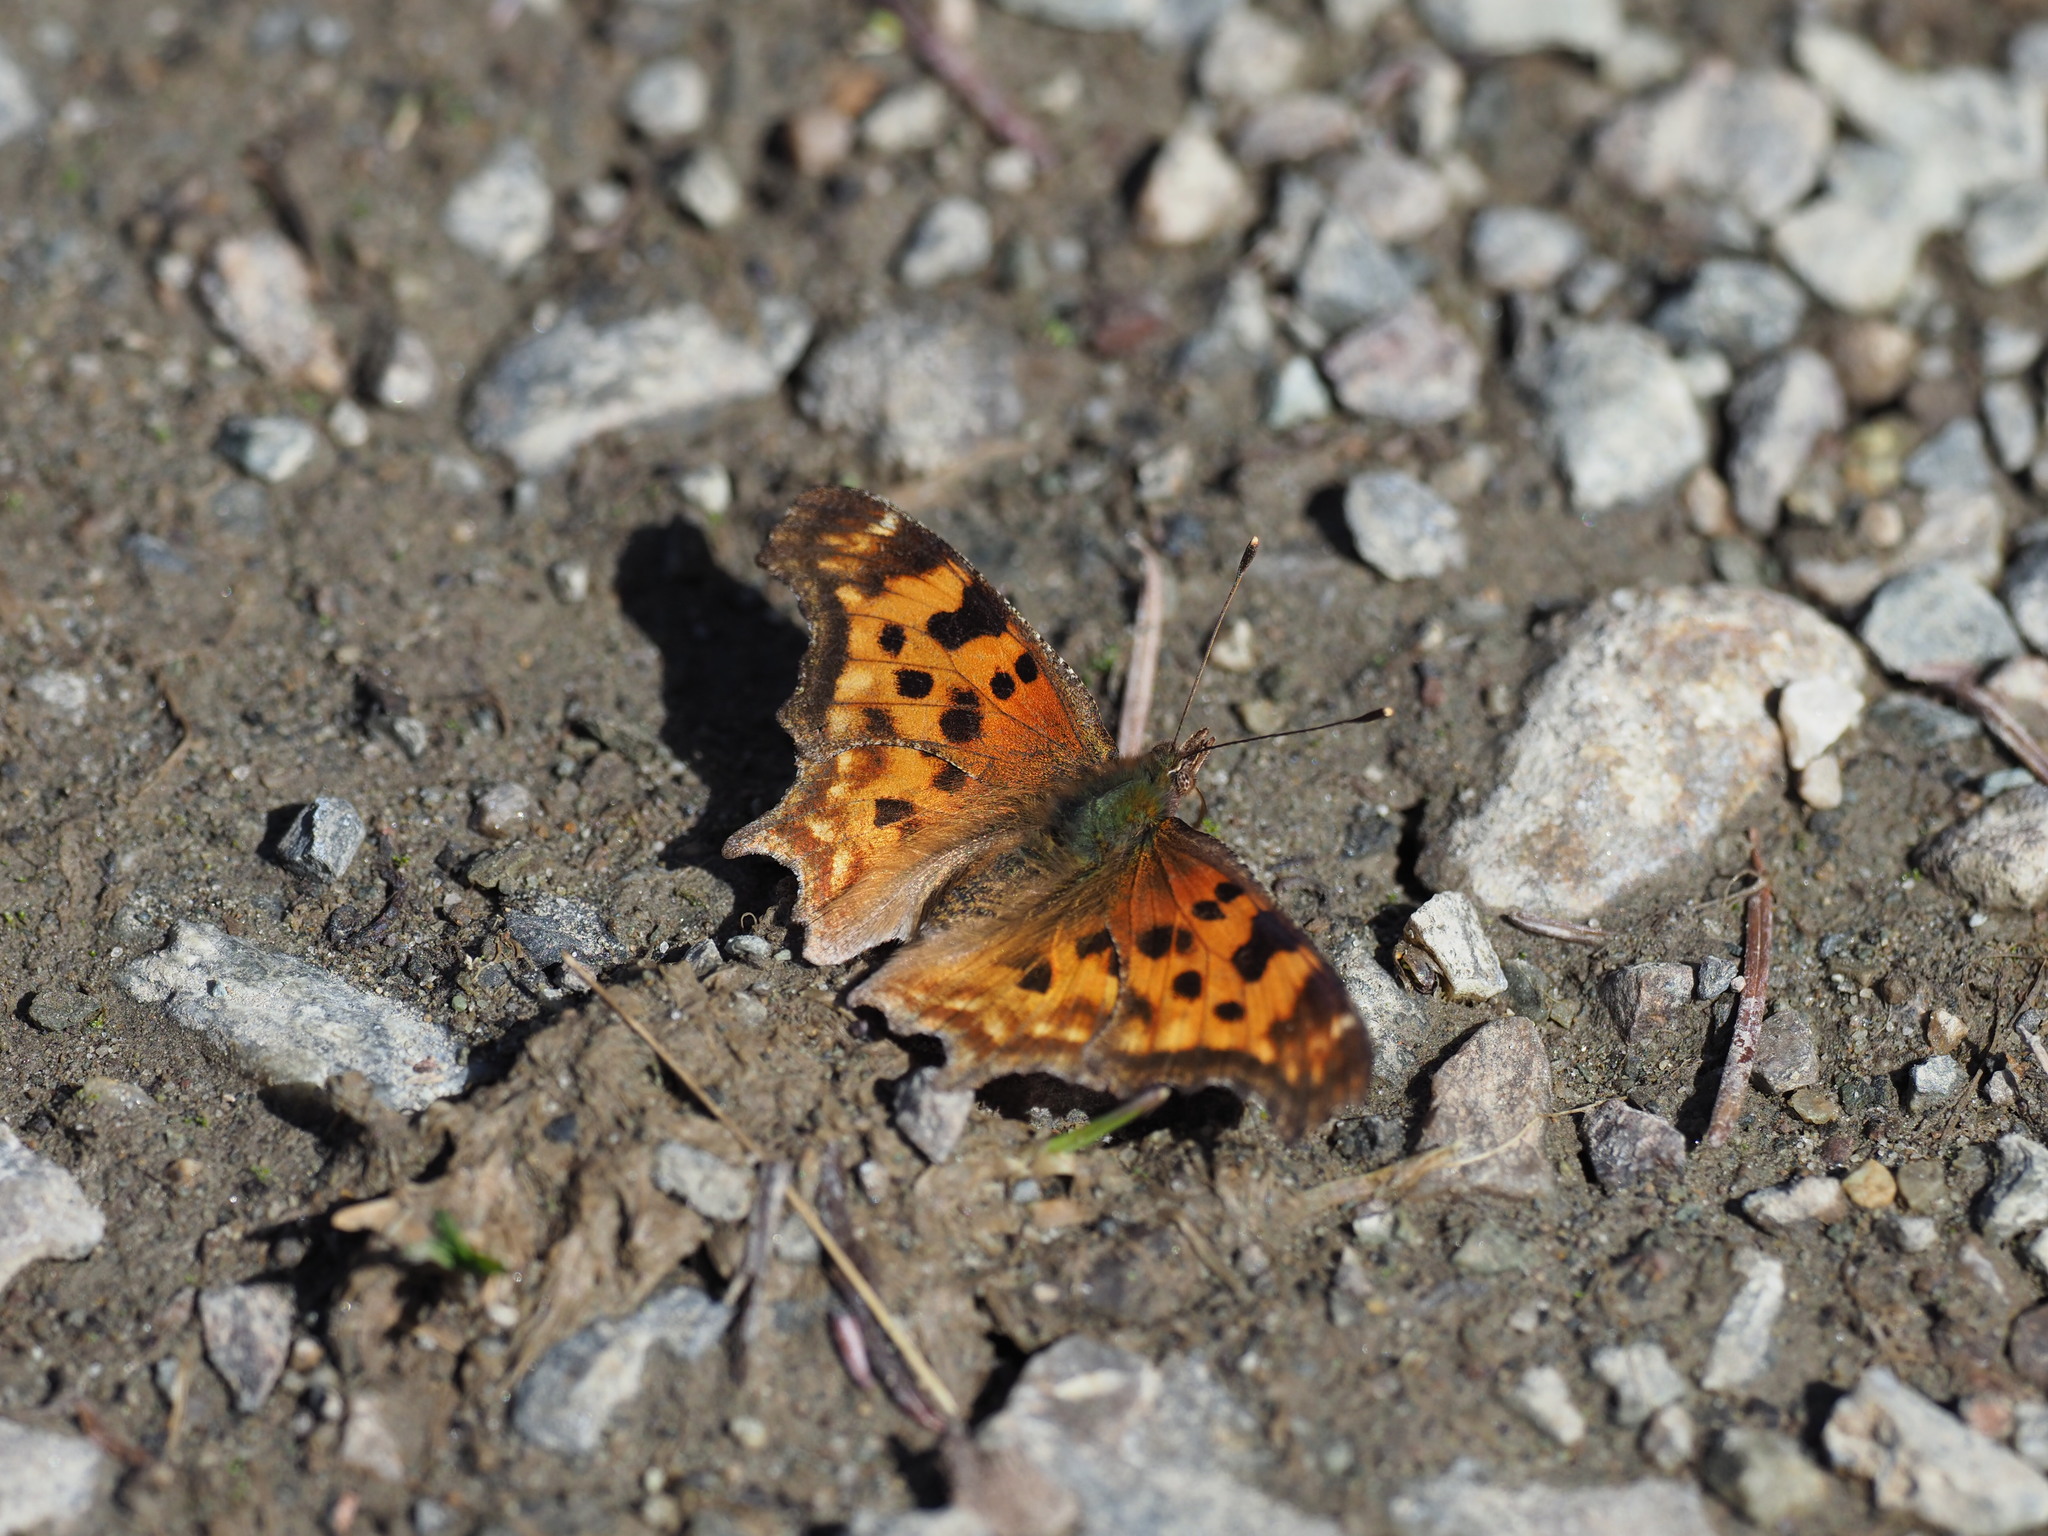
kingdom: Animalia
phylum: Arthropoda
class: Insecta
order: Lepidoptera
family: Nymphalidae
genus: Polygonia
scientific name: Polygonia gracilis
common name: Hoary comma
